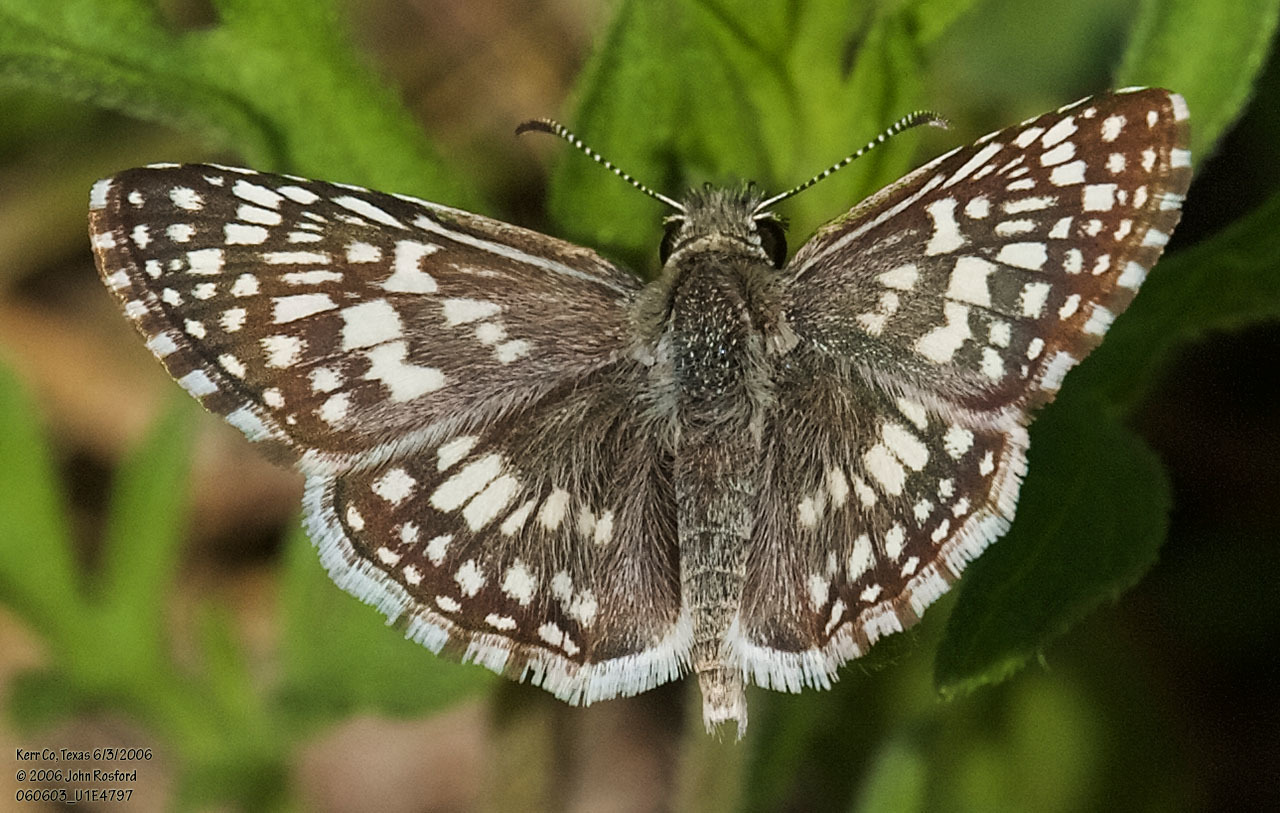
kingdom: Animalia
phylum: Arthropoda
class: Insecta
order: Lepidoptera
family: Hesperiidae
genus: Burnsius
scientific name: Burnsius philetas
